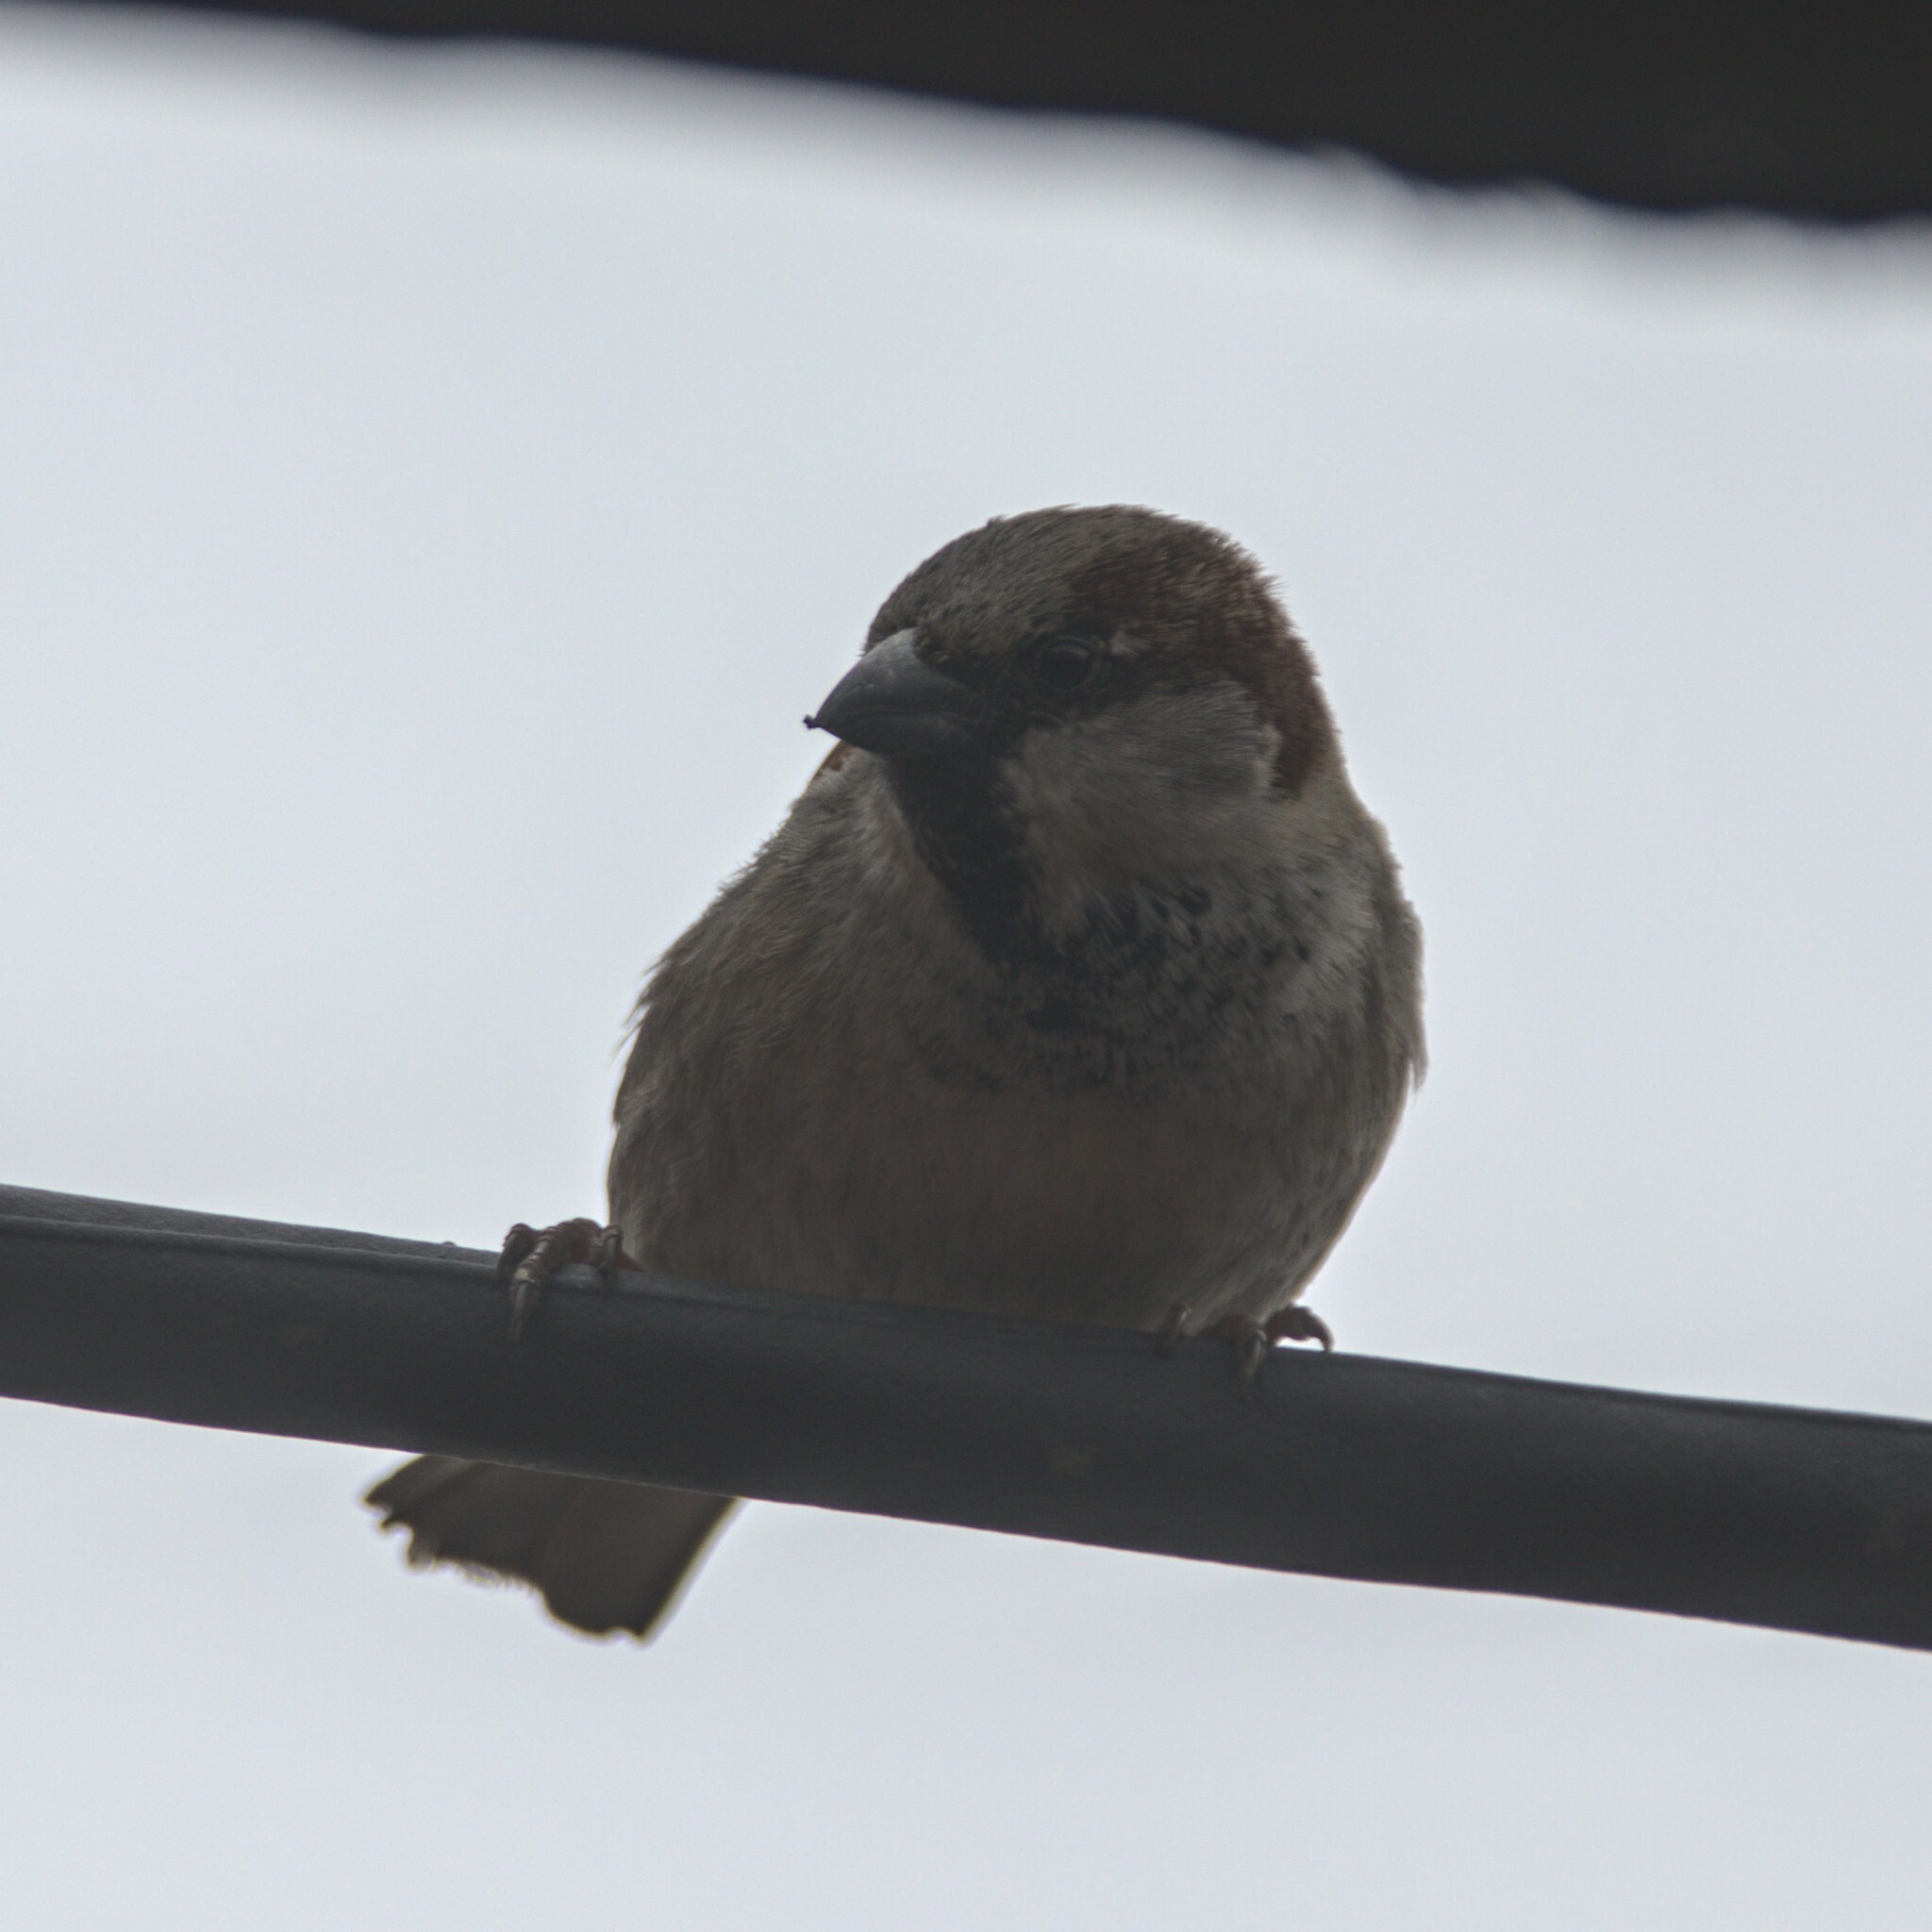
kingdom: Animalia
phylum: Chordata
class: Aves
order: Passeriformes
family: Passeridae
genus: Passer
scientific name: Passer domesticus
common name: House sparrow
